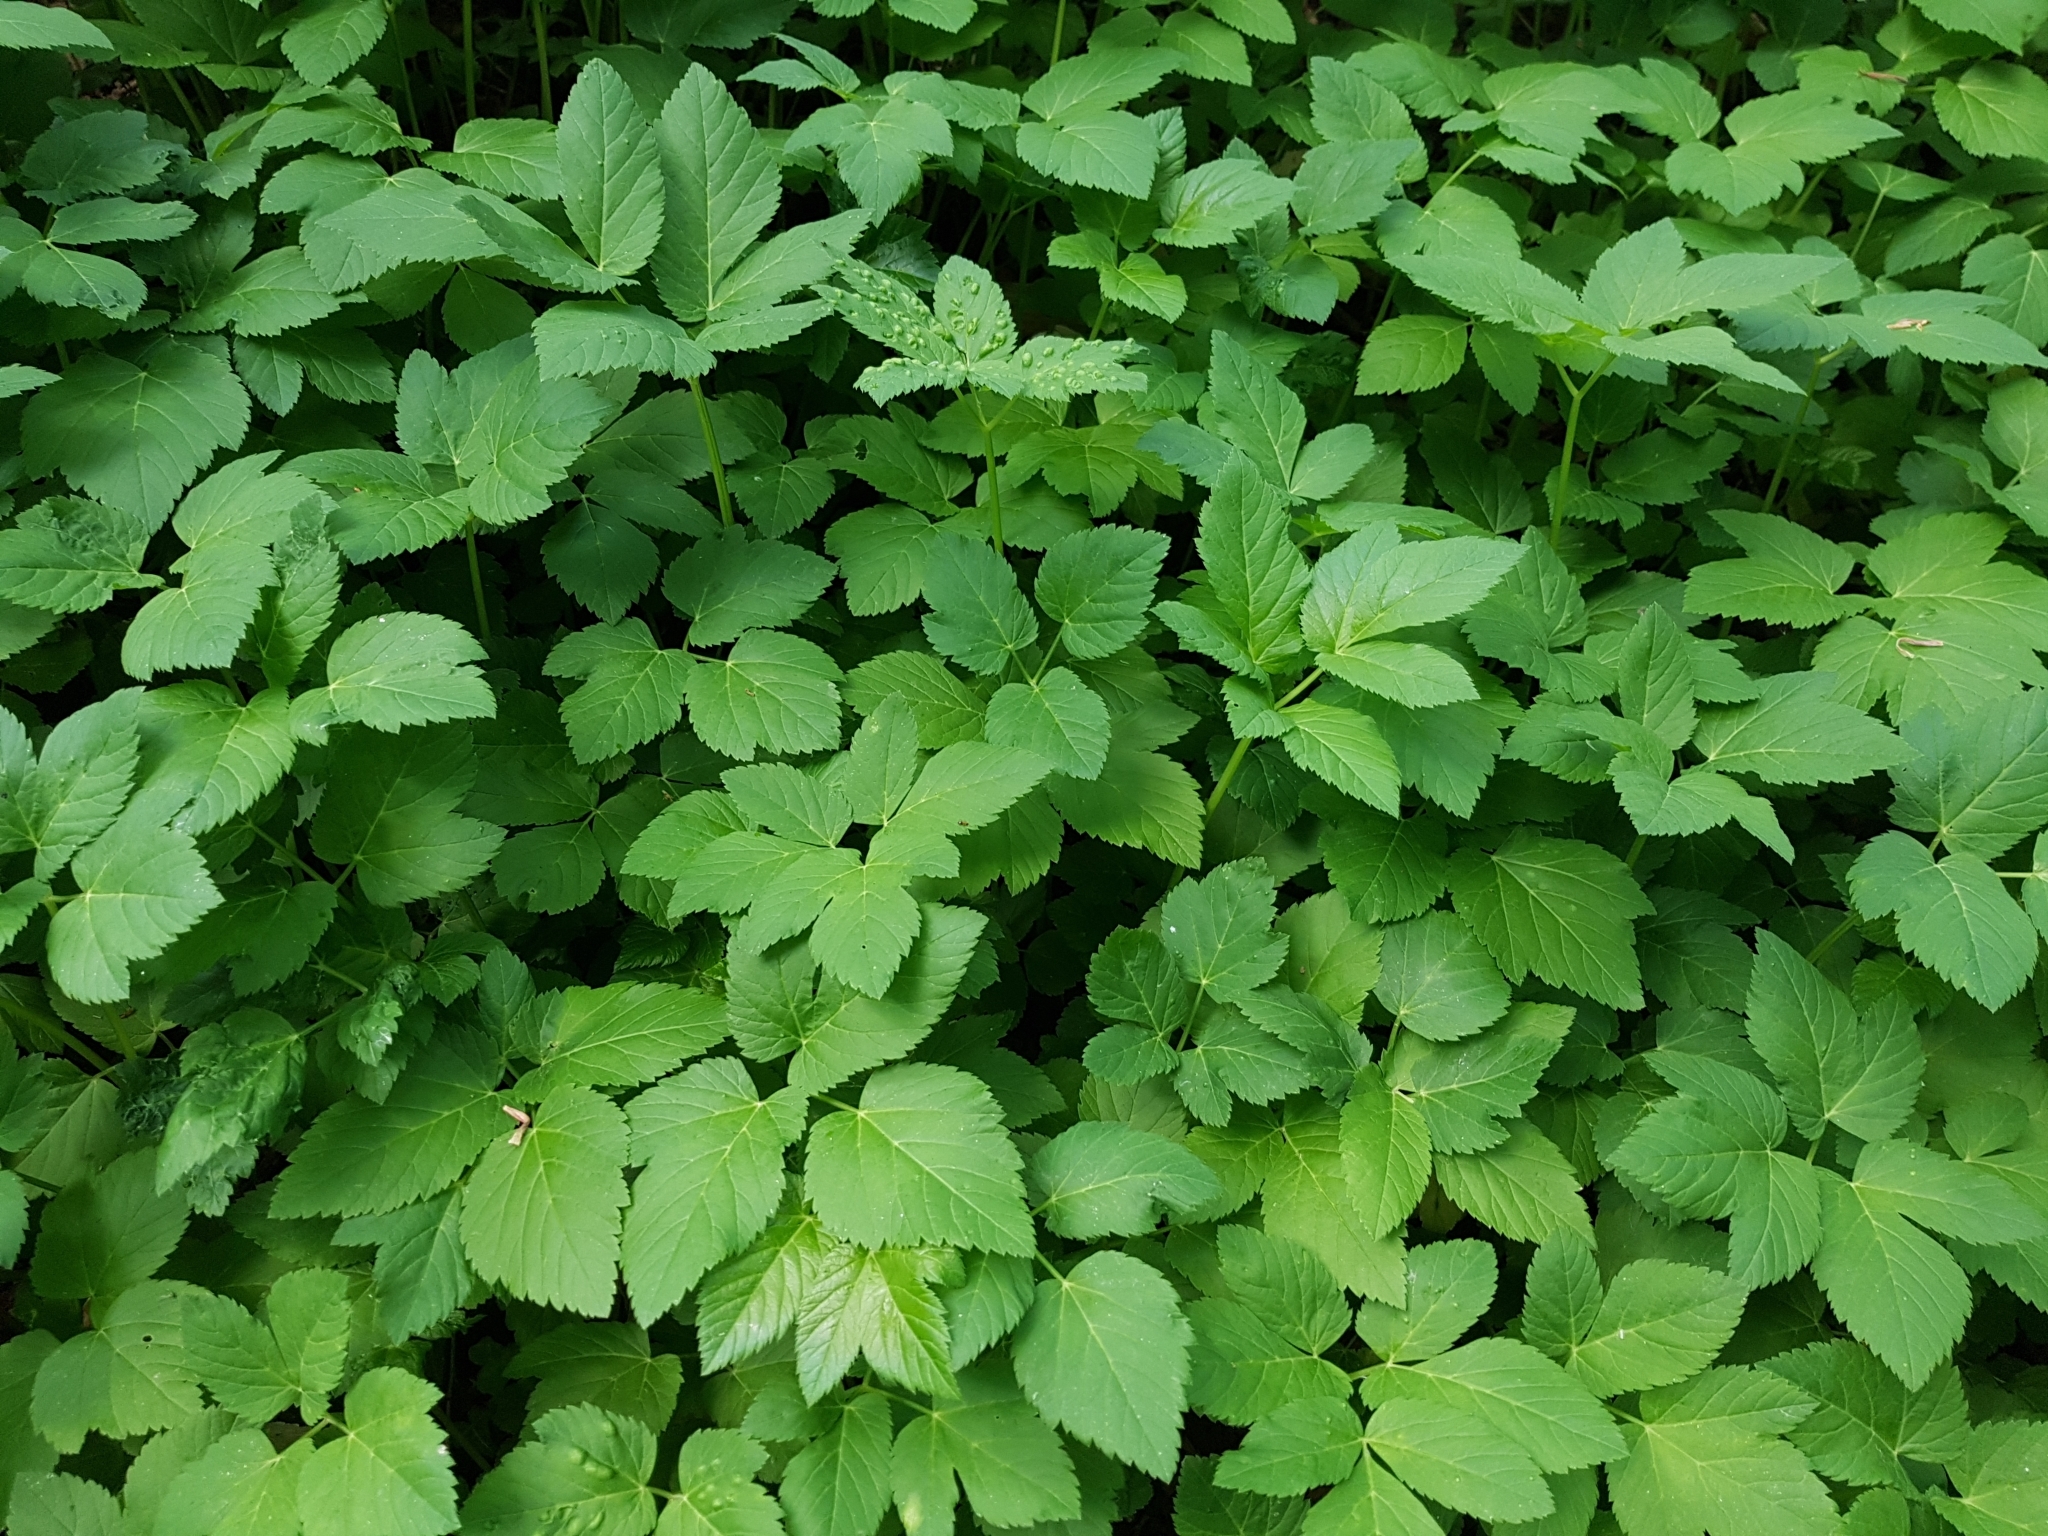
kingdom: Plantae
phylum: Tracheophyta
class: Magnoliopsida
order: Apiales
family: Apiaceae
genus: Aegopodium
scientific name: Aegopodium podagraria
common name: Ground-elder
